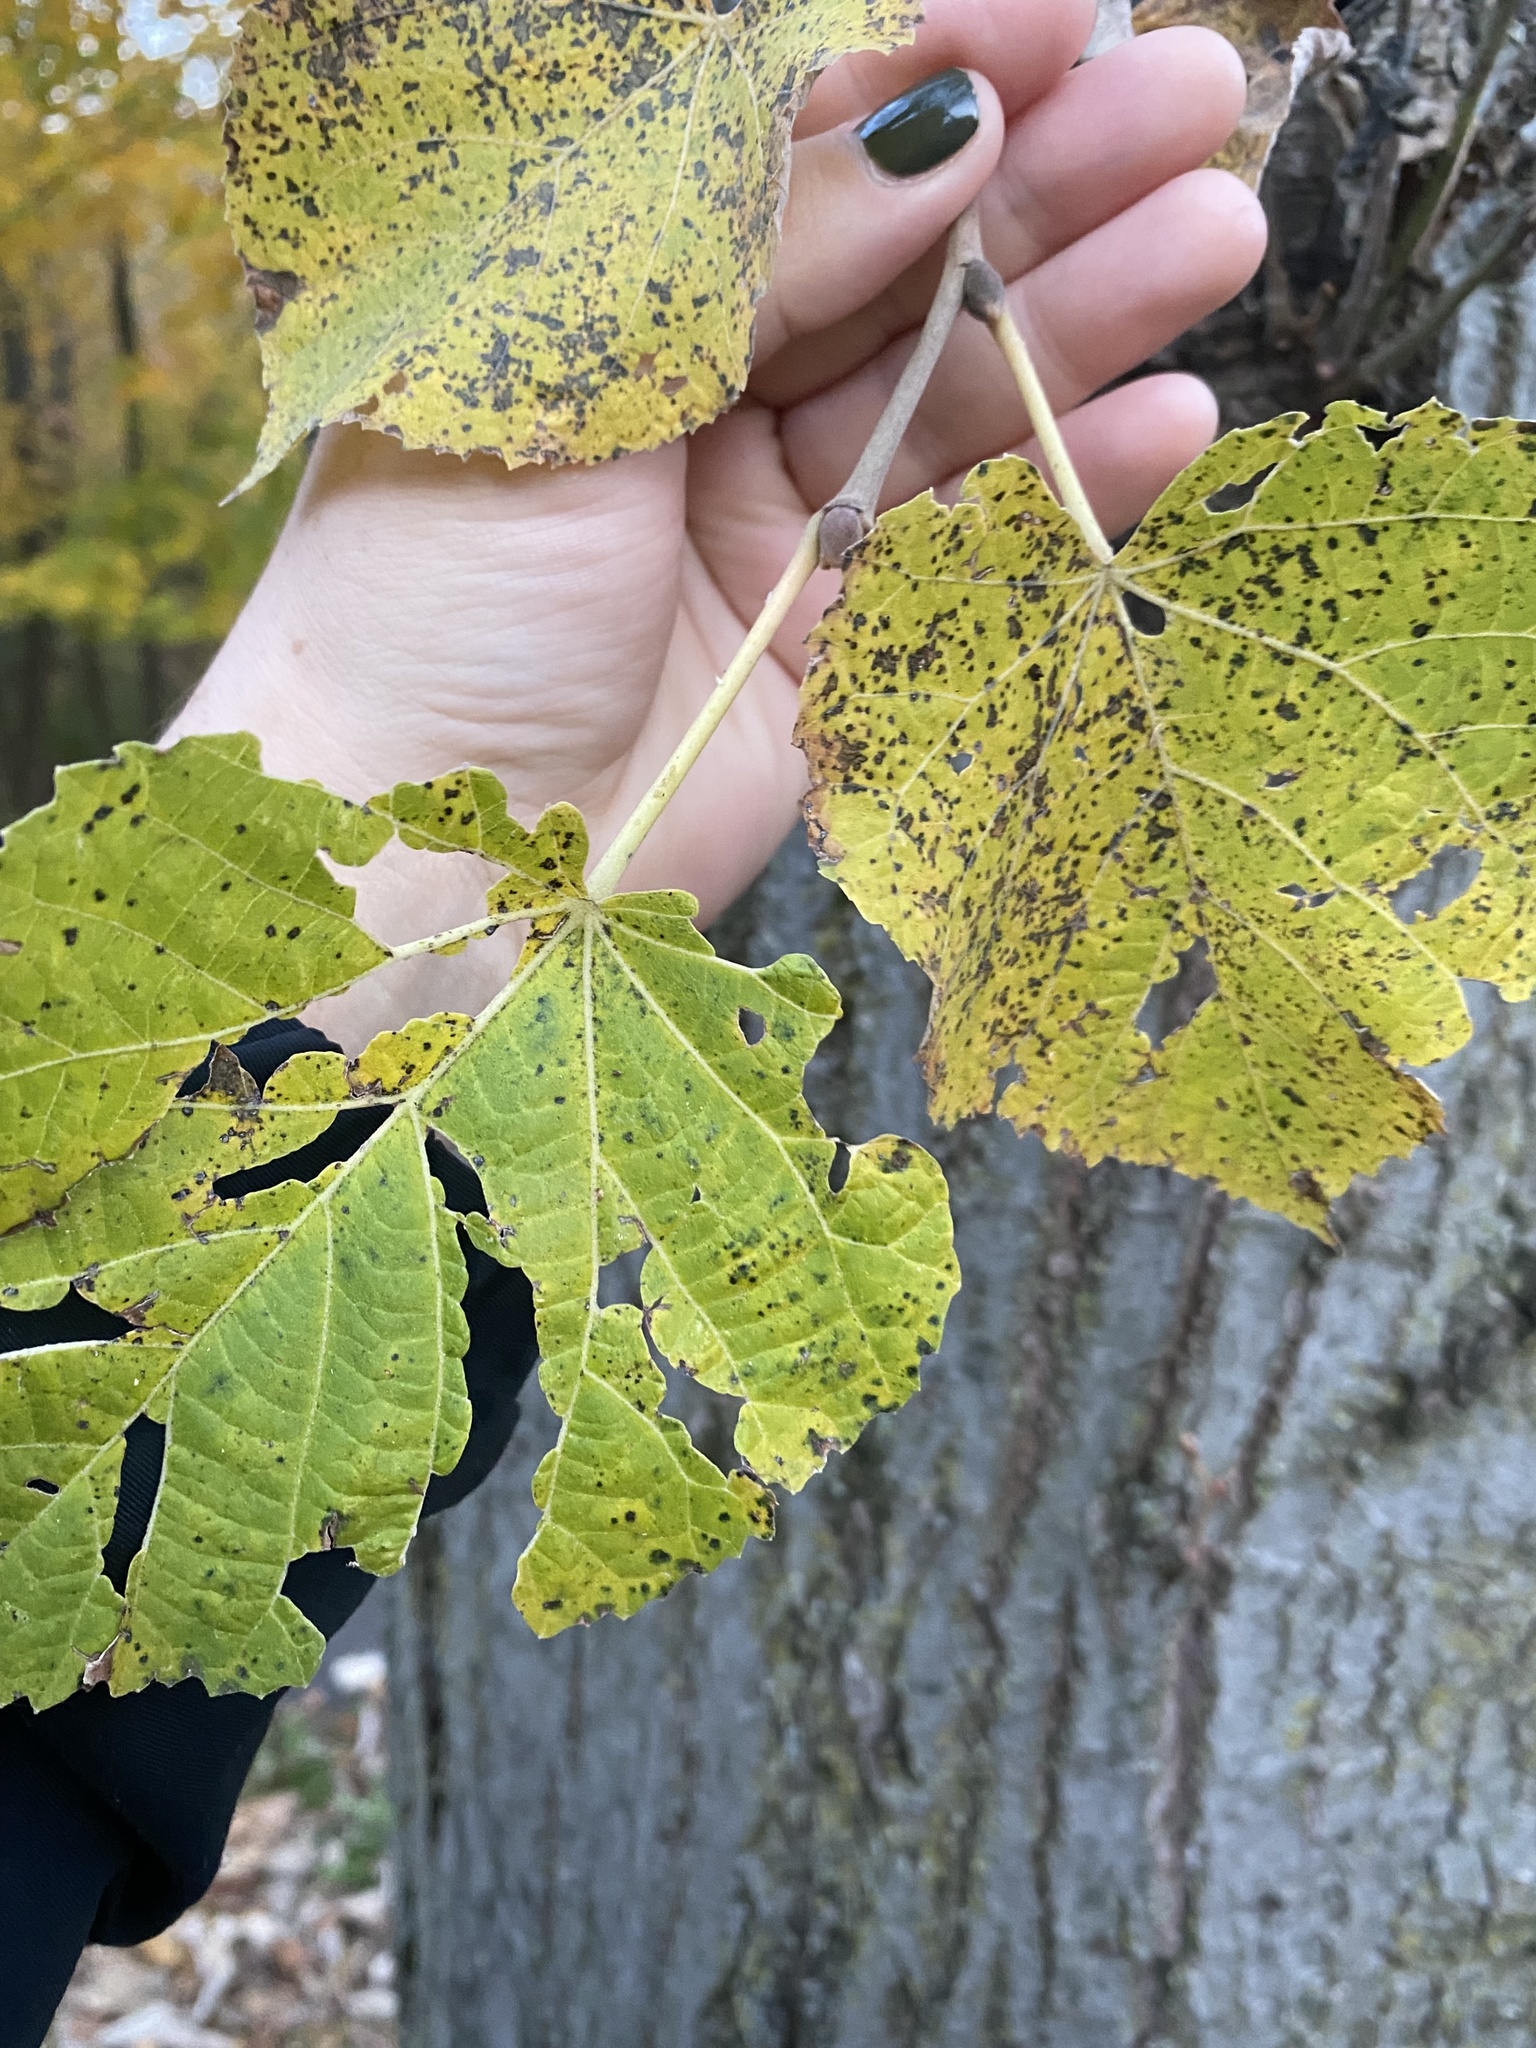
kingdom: Plantae
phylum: Tracheophyta
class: Magnoliopsida
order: Malvales
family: Malvaceae
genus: Tilia
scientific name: Tilia americana
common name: Basswood
